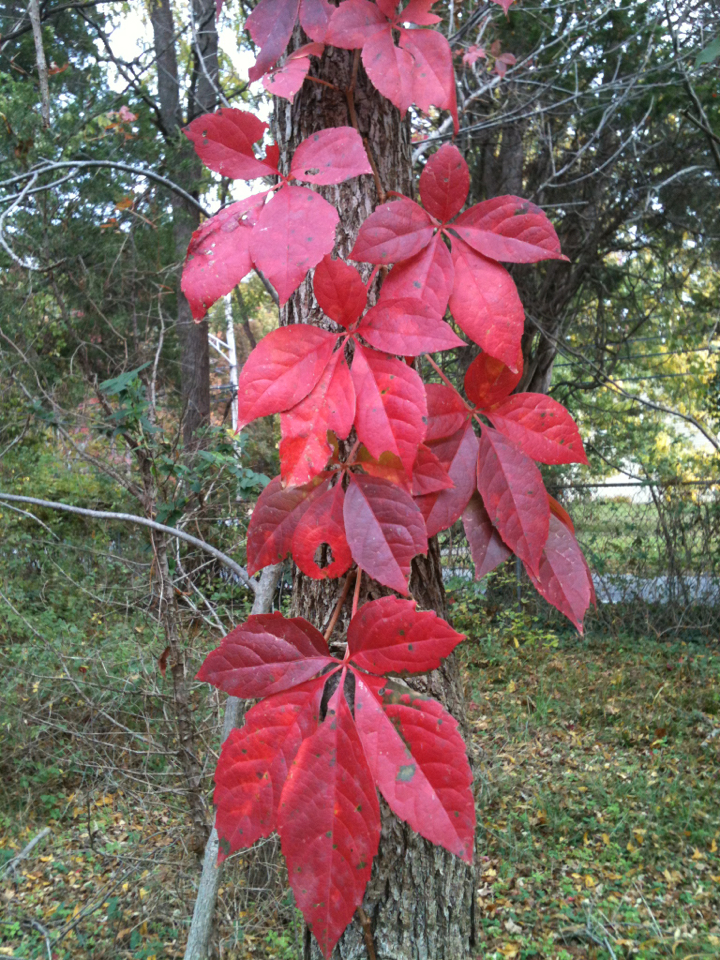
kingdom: Plantae
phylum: Tracheophyta
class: Magnoliopsida
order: Vitales
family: Vitaceae
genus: Parthenocissus
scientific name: Parthenocissus quinquefolia
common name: Virginia-creeper
